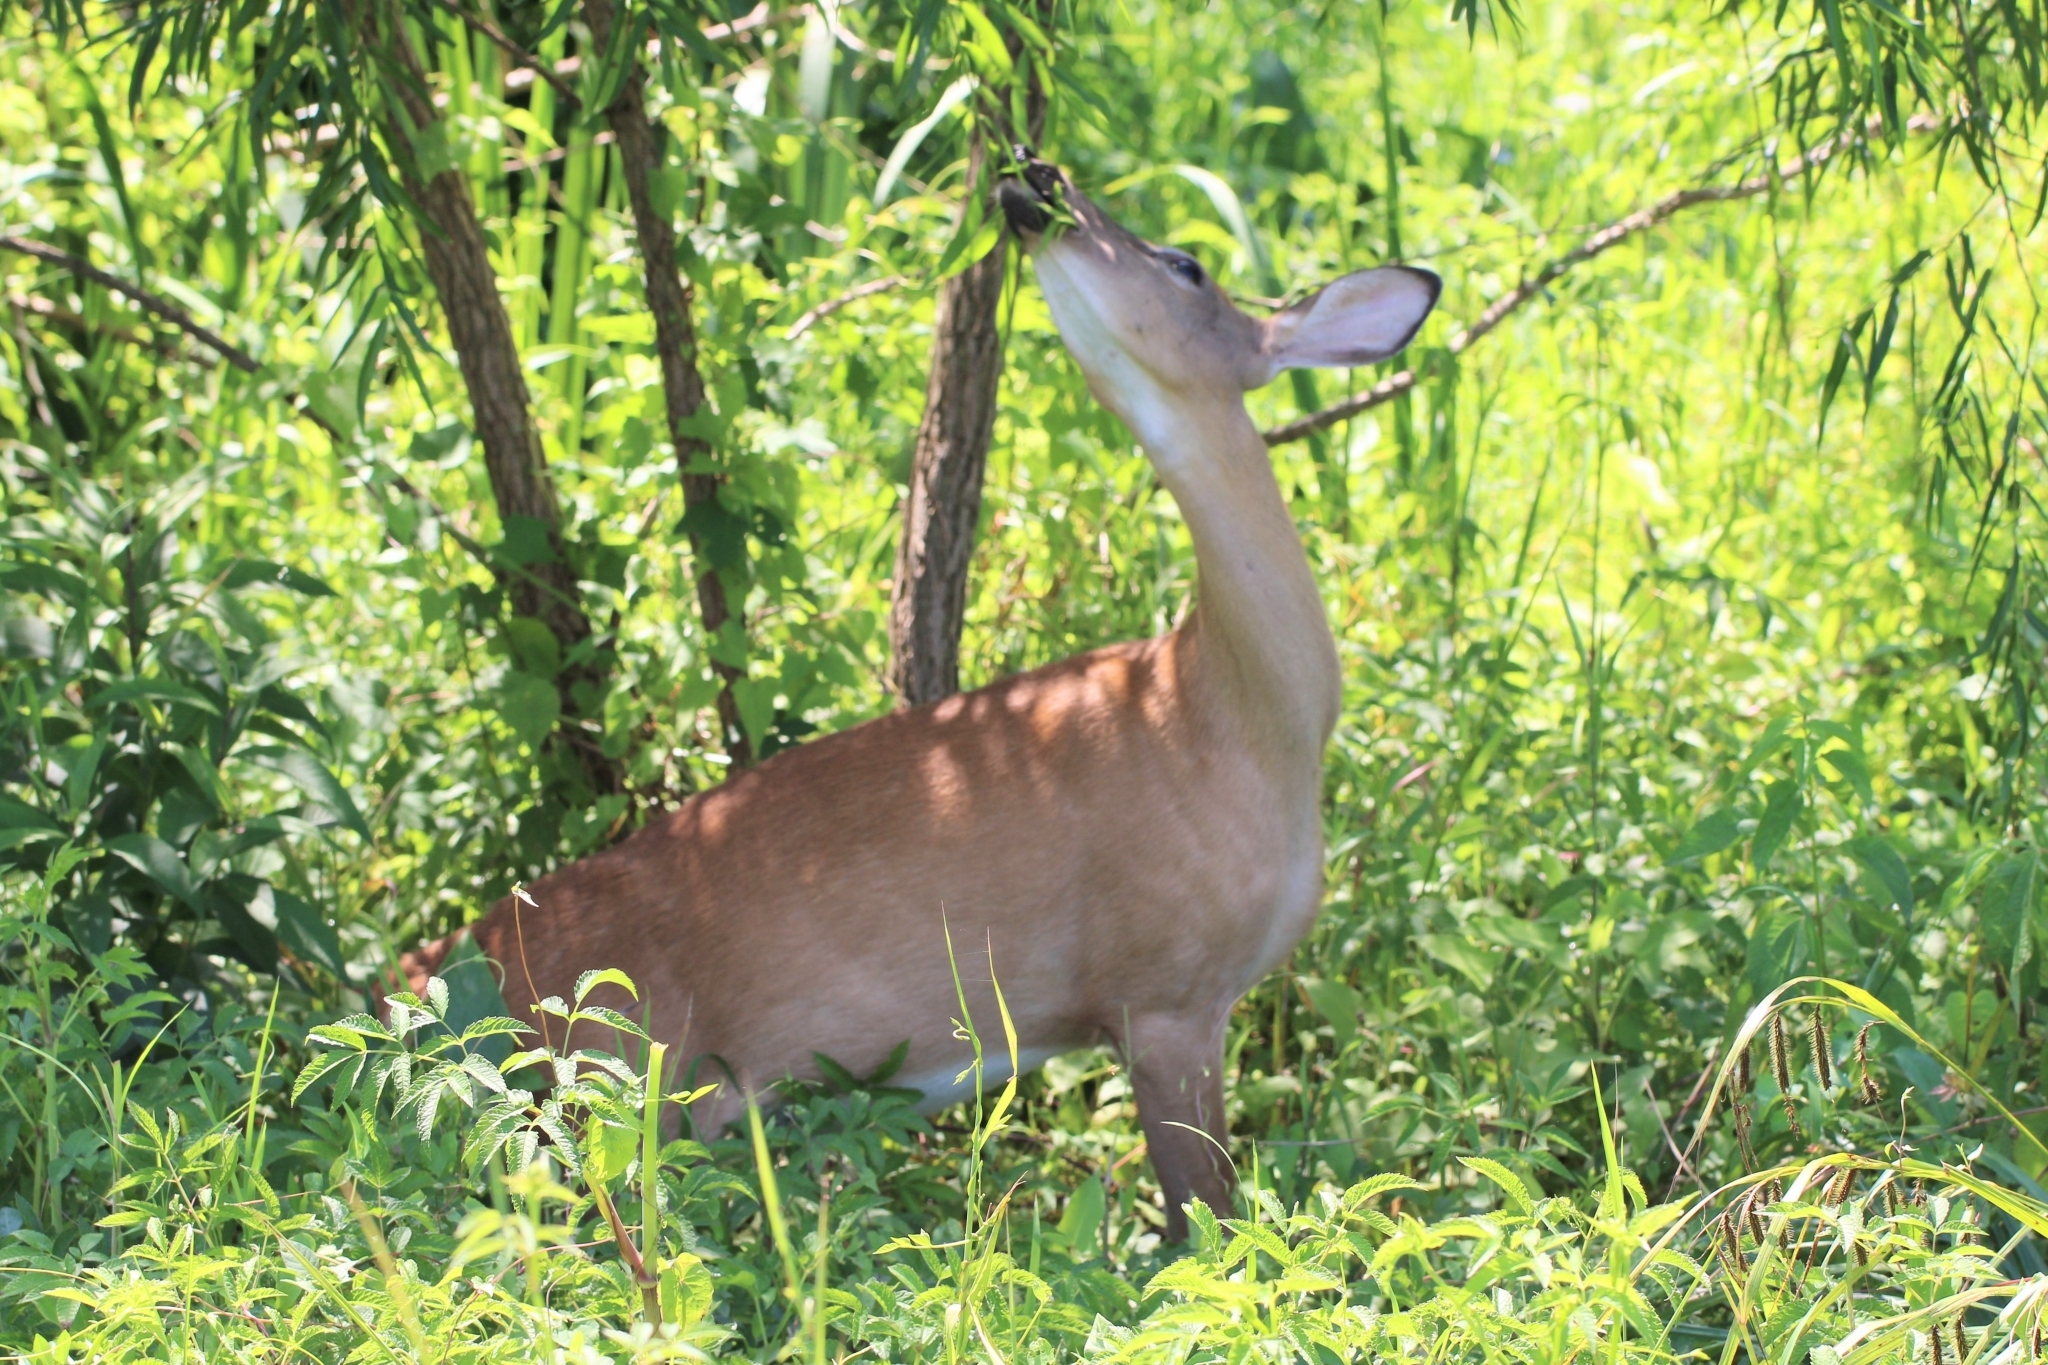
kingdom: Animalia
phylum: Chordata
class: Mammalia
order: Artiodactyla
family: Cervidae
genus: Odocoileus
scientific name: Odocoileus virginianus
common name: White-tailed deer
